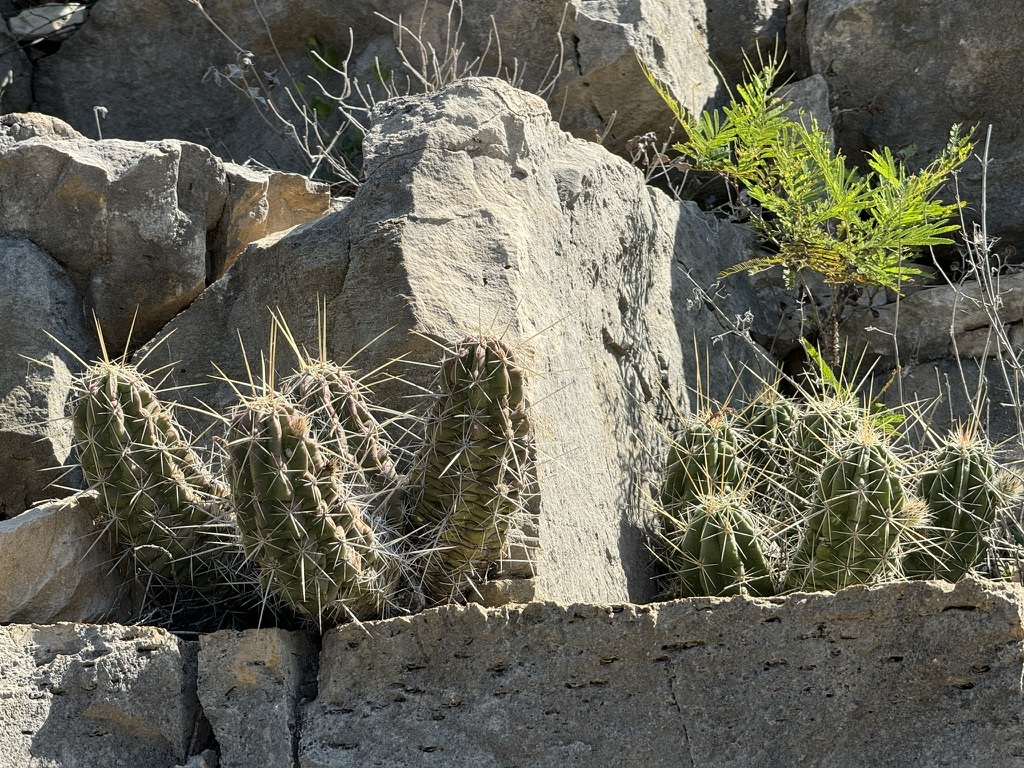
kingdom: Plantae
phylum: Tracheophyta
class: Magnoliopsida
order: Caryophyllales
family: Cactaceae
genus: Echinocereus
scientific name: Echinocereus enneacanthus
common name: Pitaya
